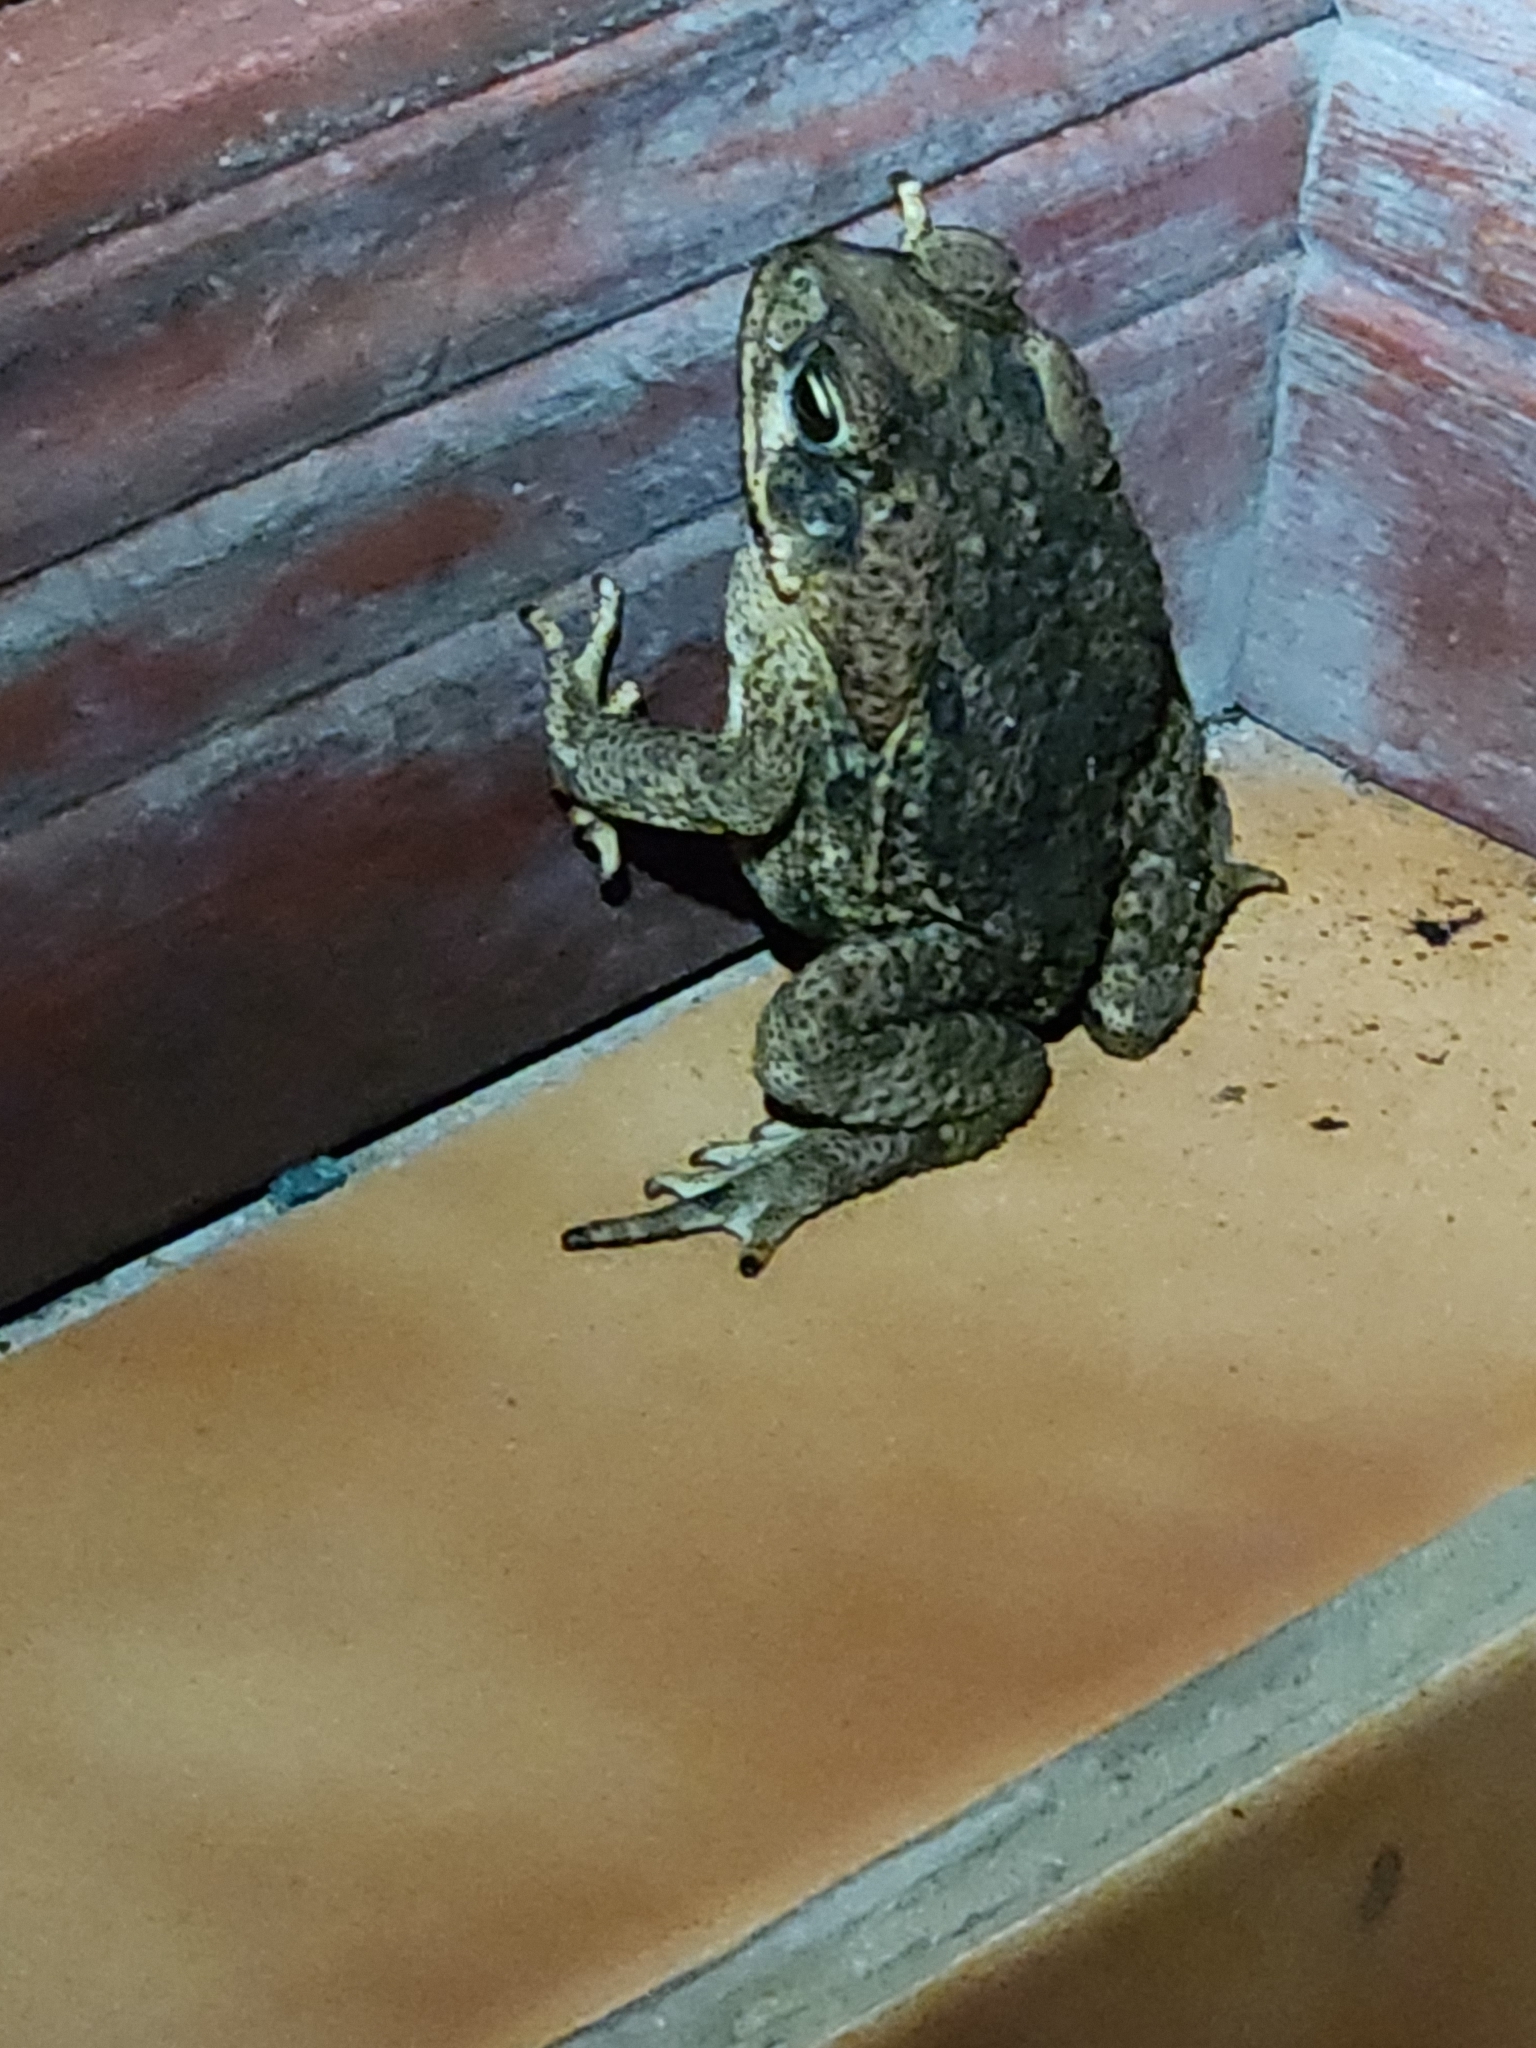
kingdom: Animalia
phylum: Chordata
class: Amphibia
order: Anura
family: Bufonidae
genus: Rhinella
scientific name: Rhinella horribilis
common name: Mesoamerican cane toad
